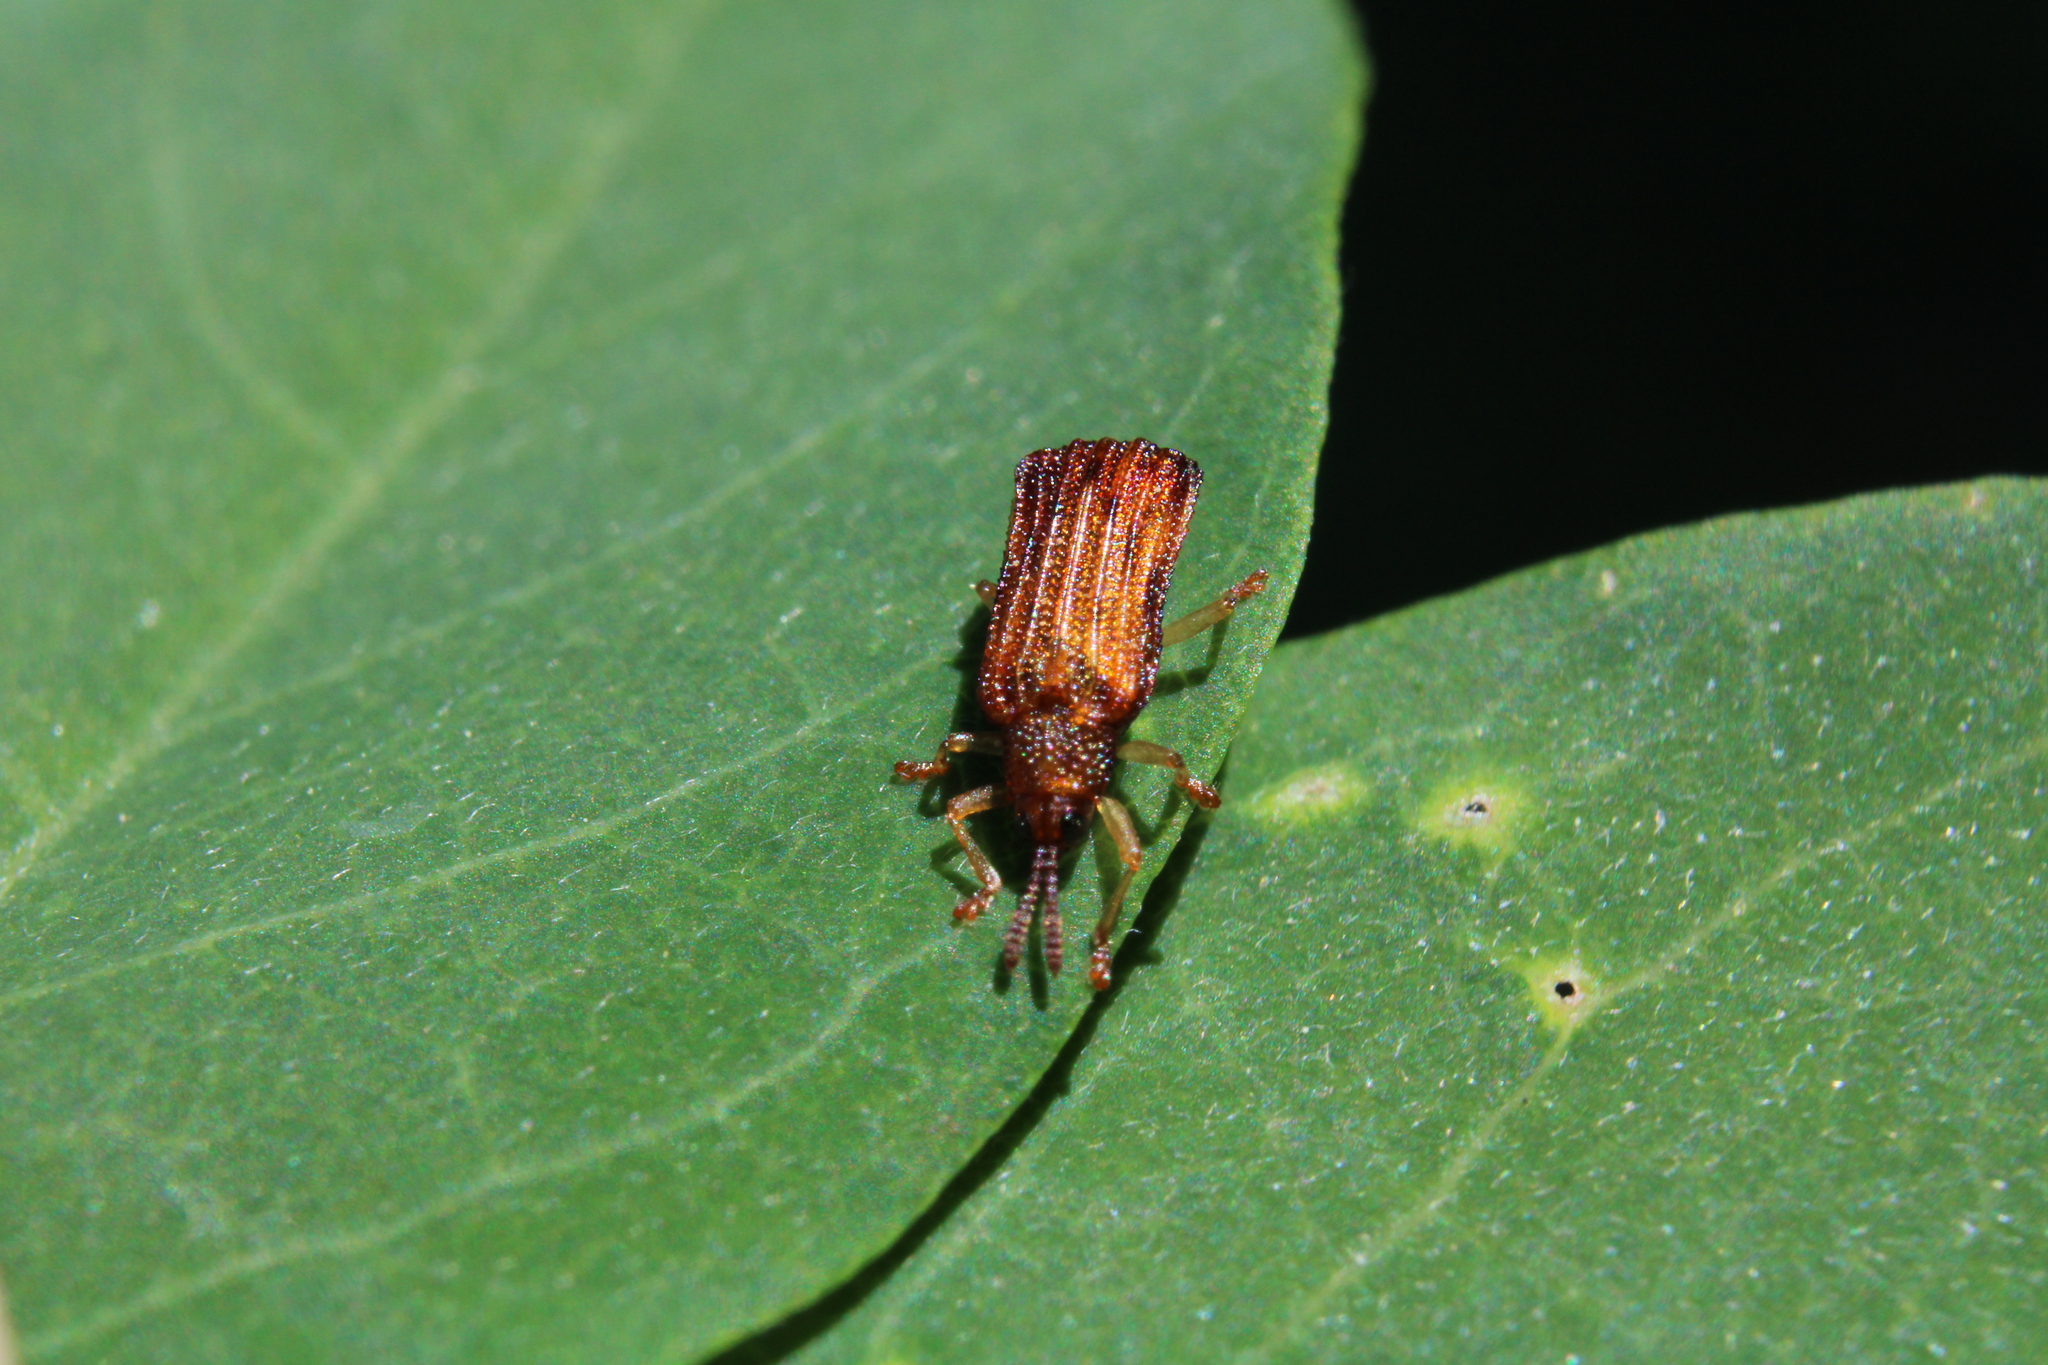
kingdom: Animalia
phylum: Arthropoda
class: Insecta
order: Coleoptera
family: Chrysomelidae
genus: Sumitrosis
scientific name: Sumitrosis rosea
